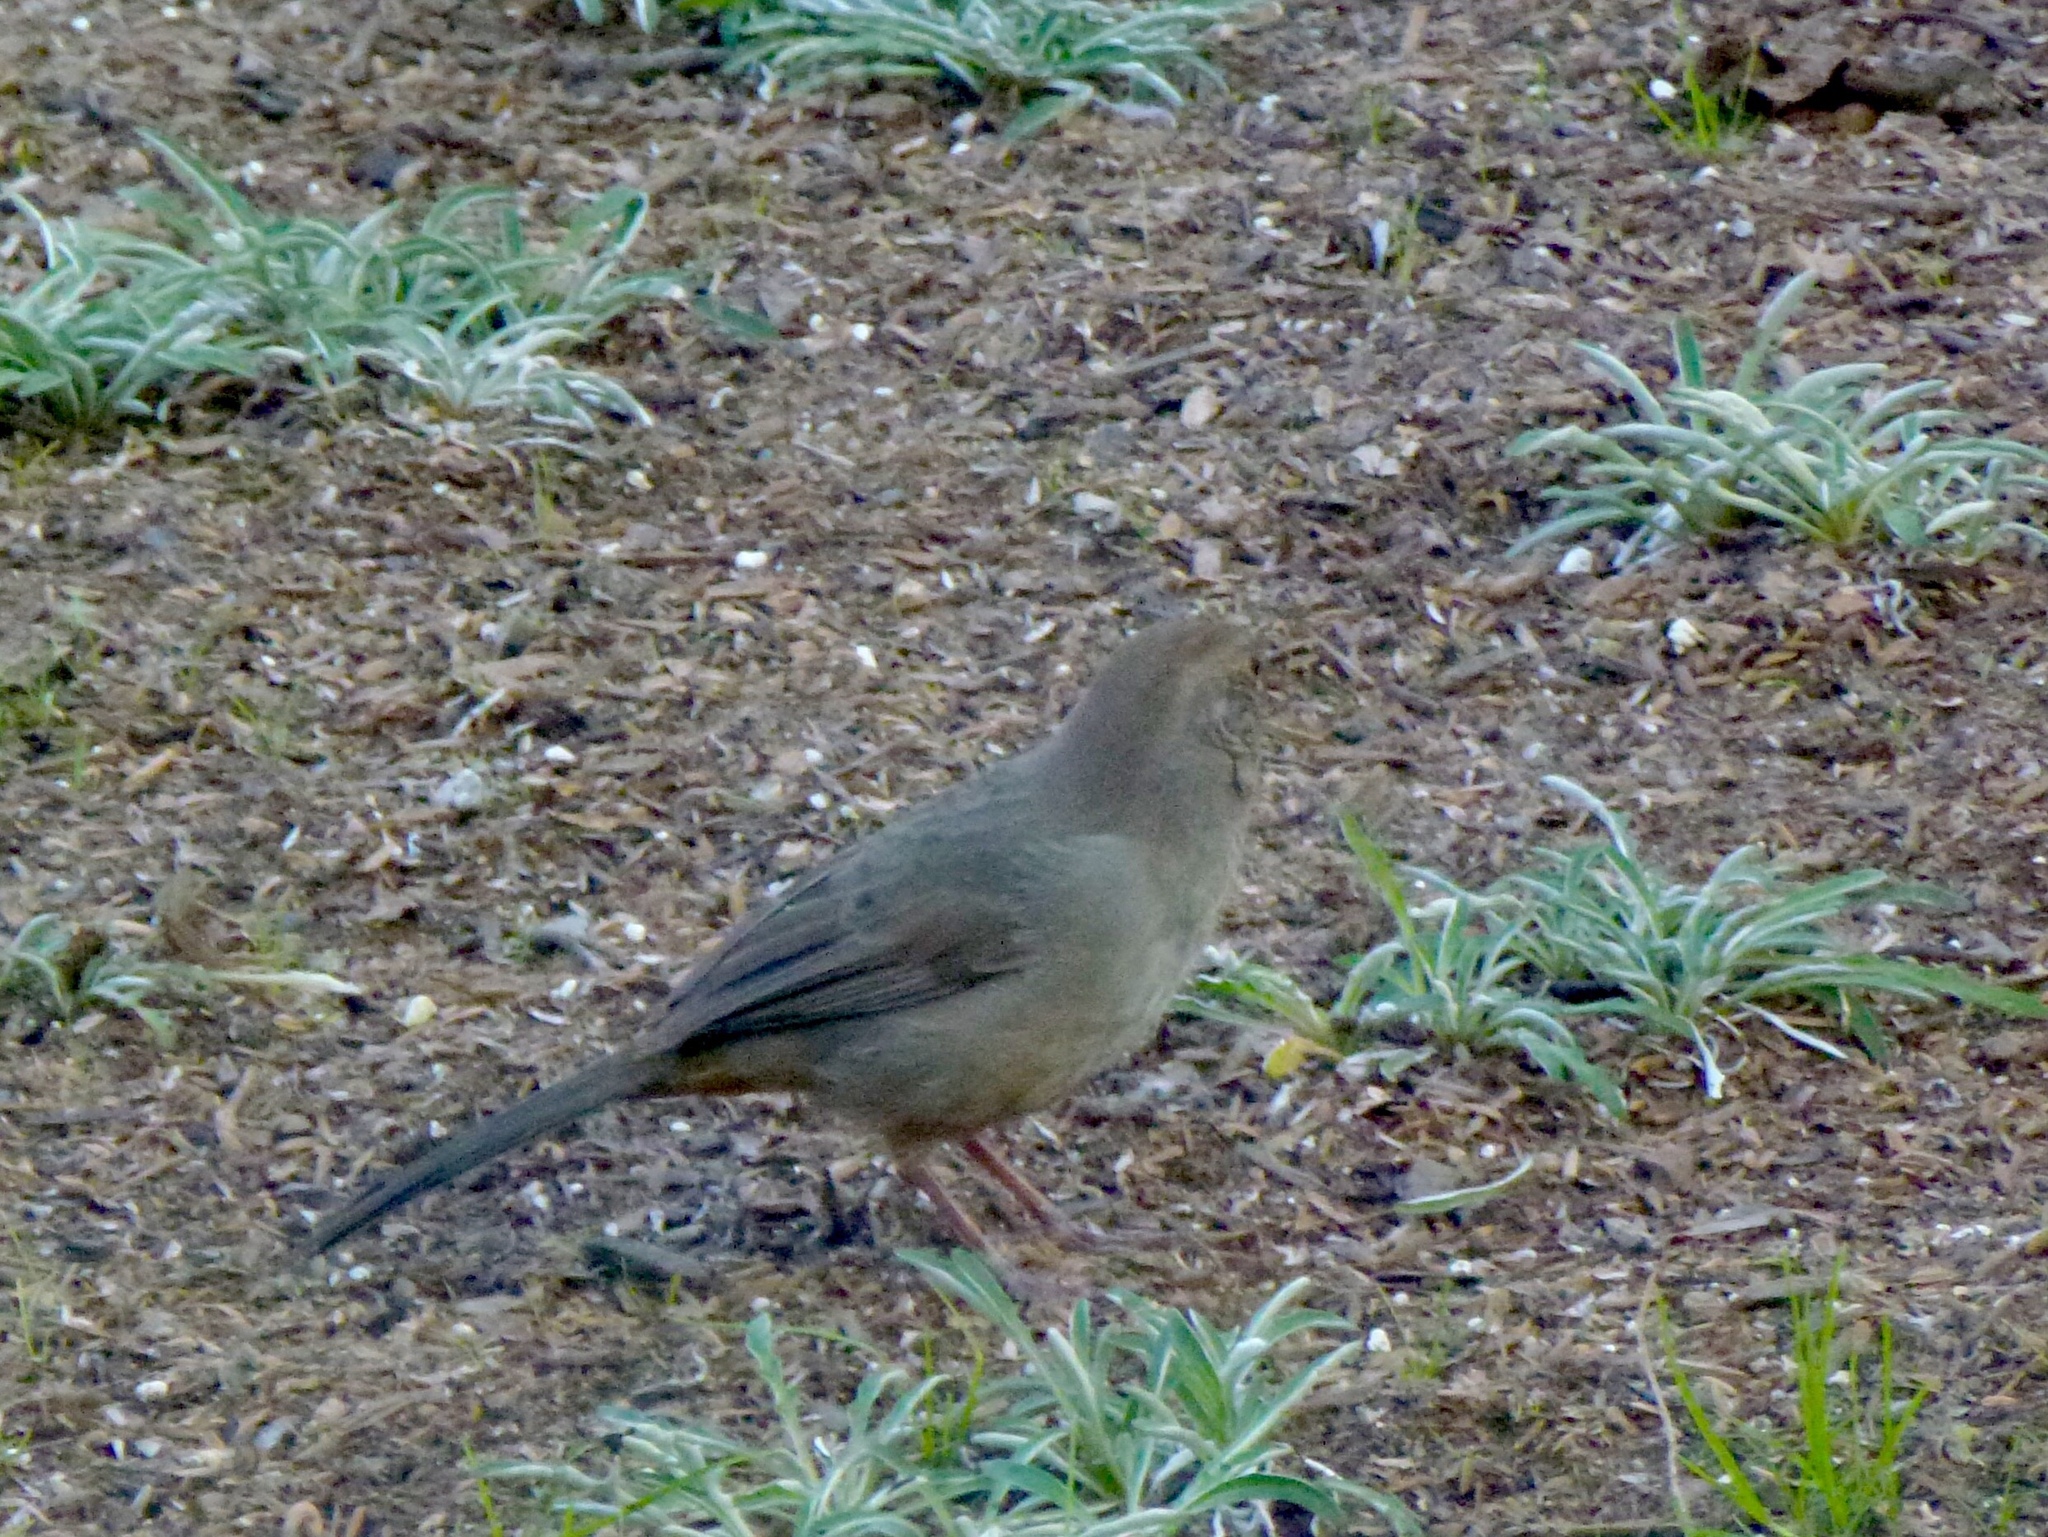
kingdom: Animalia
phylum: Chordata
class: Aves
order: Passeriformes
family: Passerellidae
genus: Melozone
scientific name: Melozone crissalis
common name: California towhee
